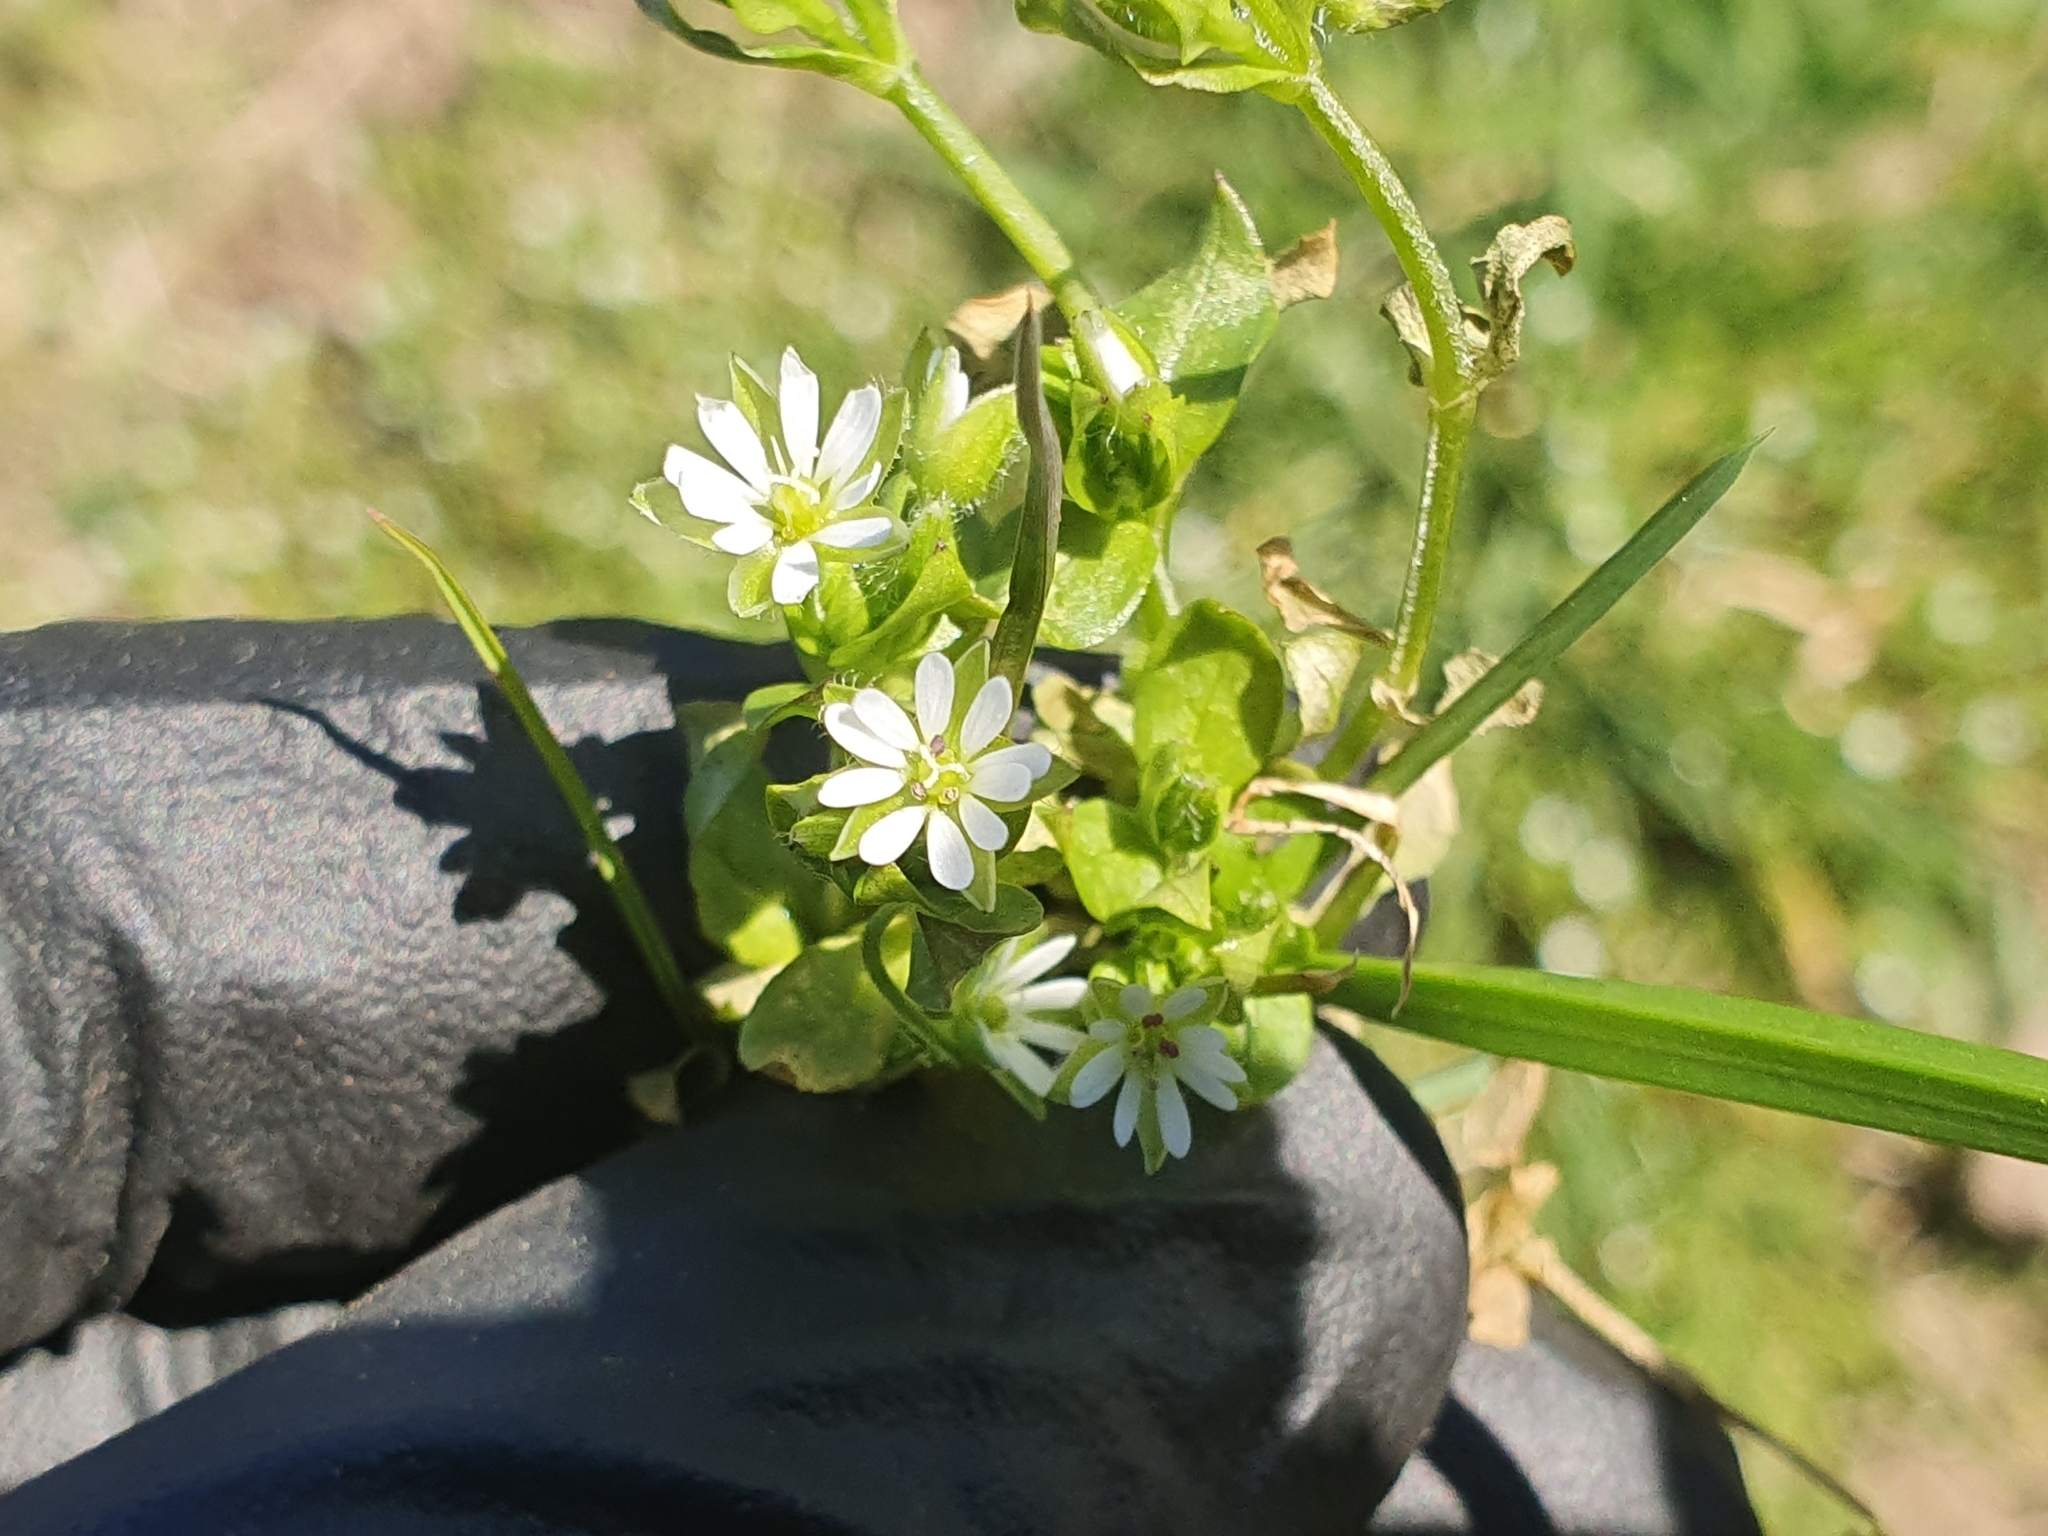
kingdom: Plantae
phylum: Tracheophyta
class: Magnoliopsida
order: Caryophyllales
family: Caryophyllaceae
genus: Stellaria
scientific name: Stellaria media
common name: Common chickweed
